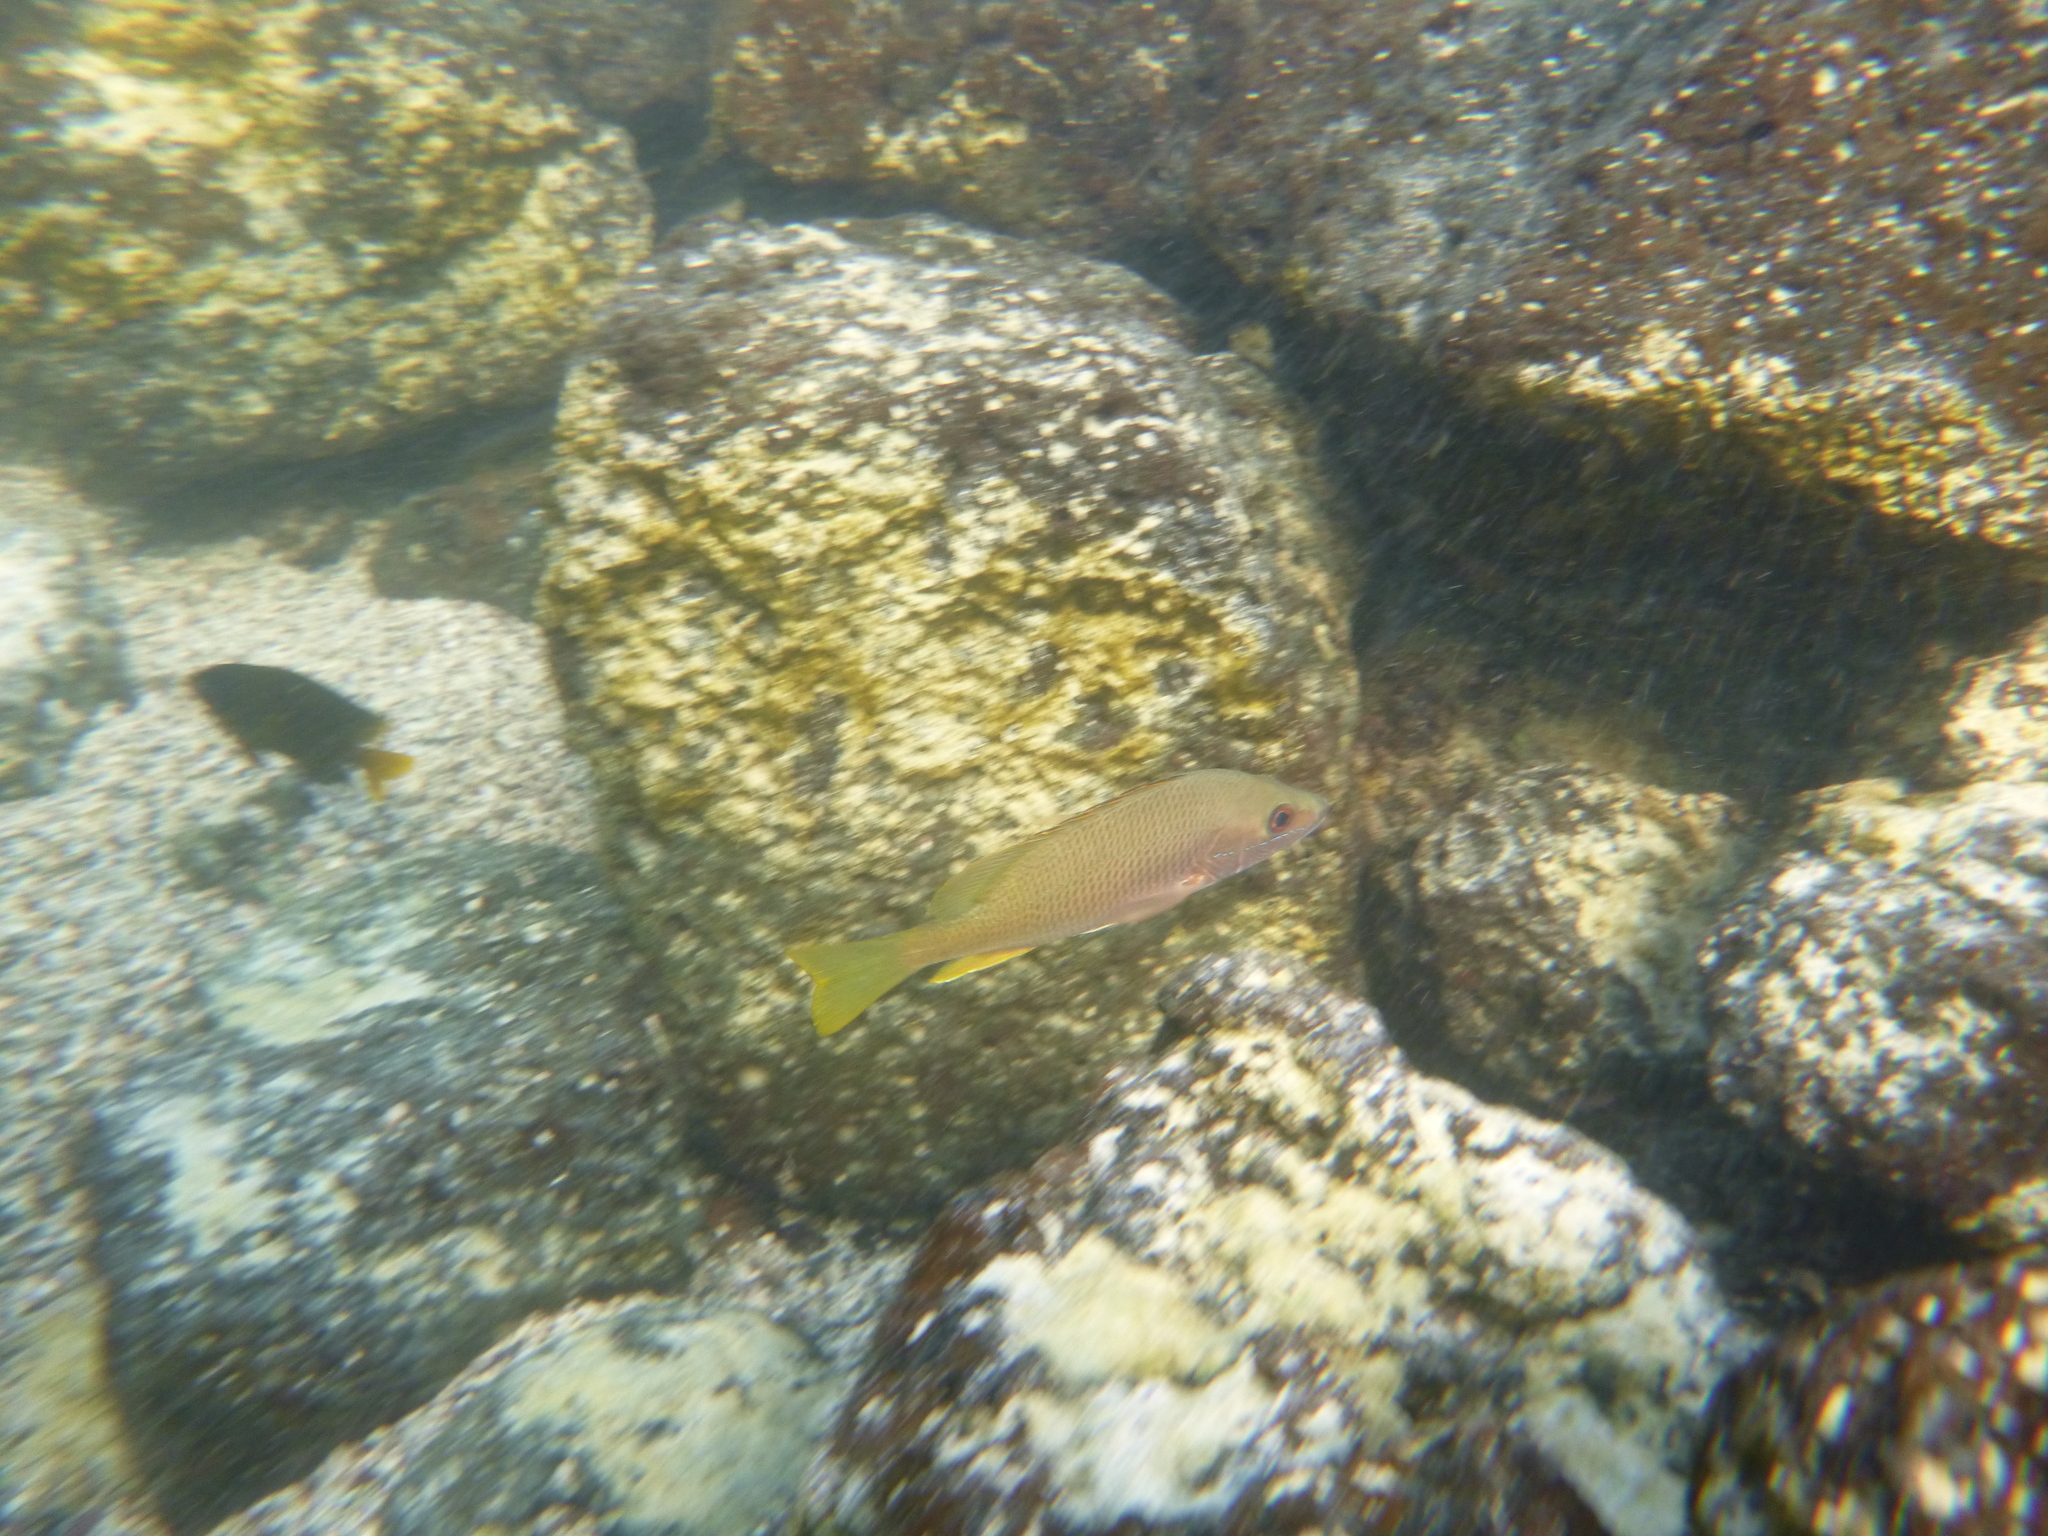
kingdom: Animalia
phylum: Chordata
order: Perciformes
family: Lutjanidae
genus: Lutjanus
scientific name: Lutjanus argentiventris
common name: Yellow snapper
